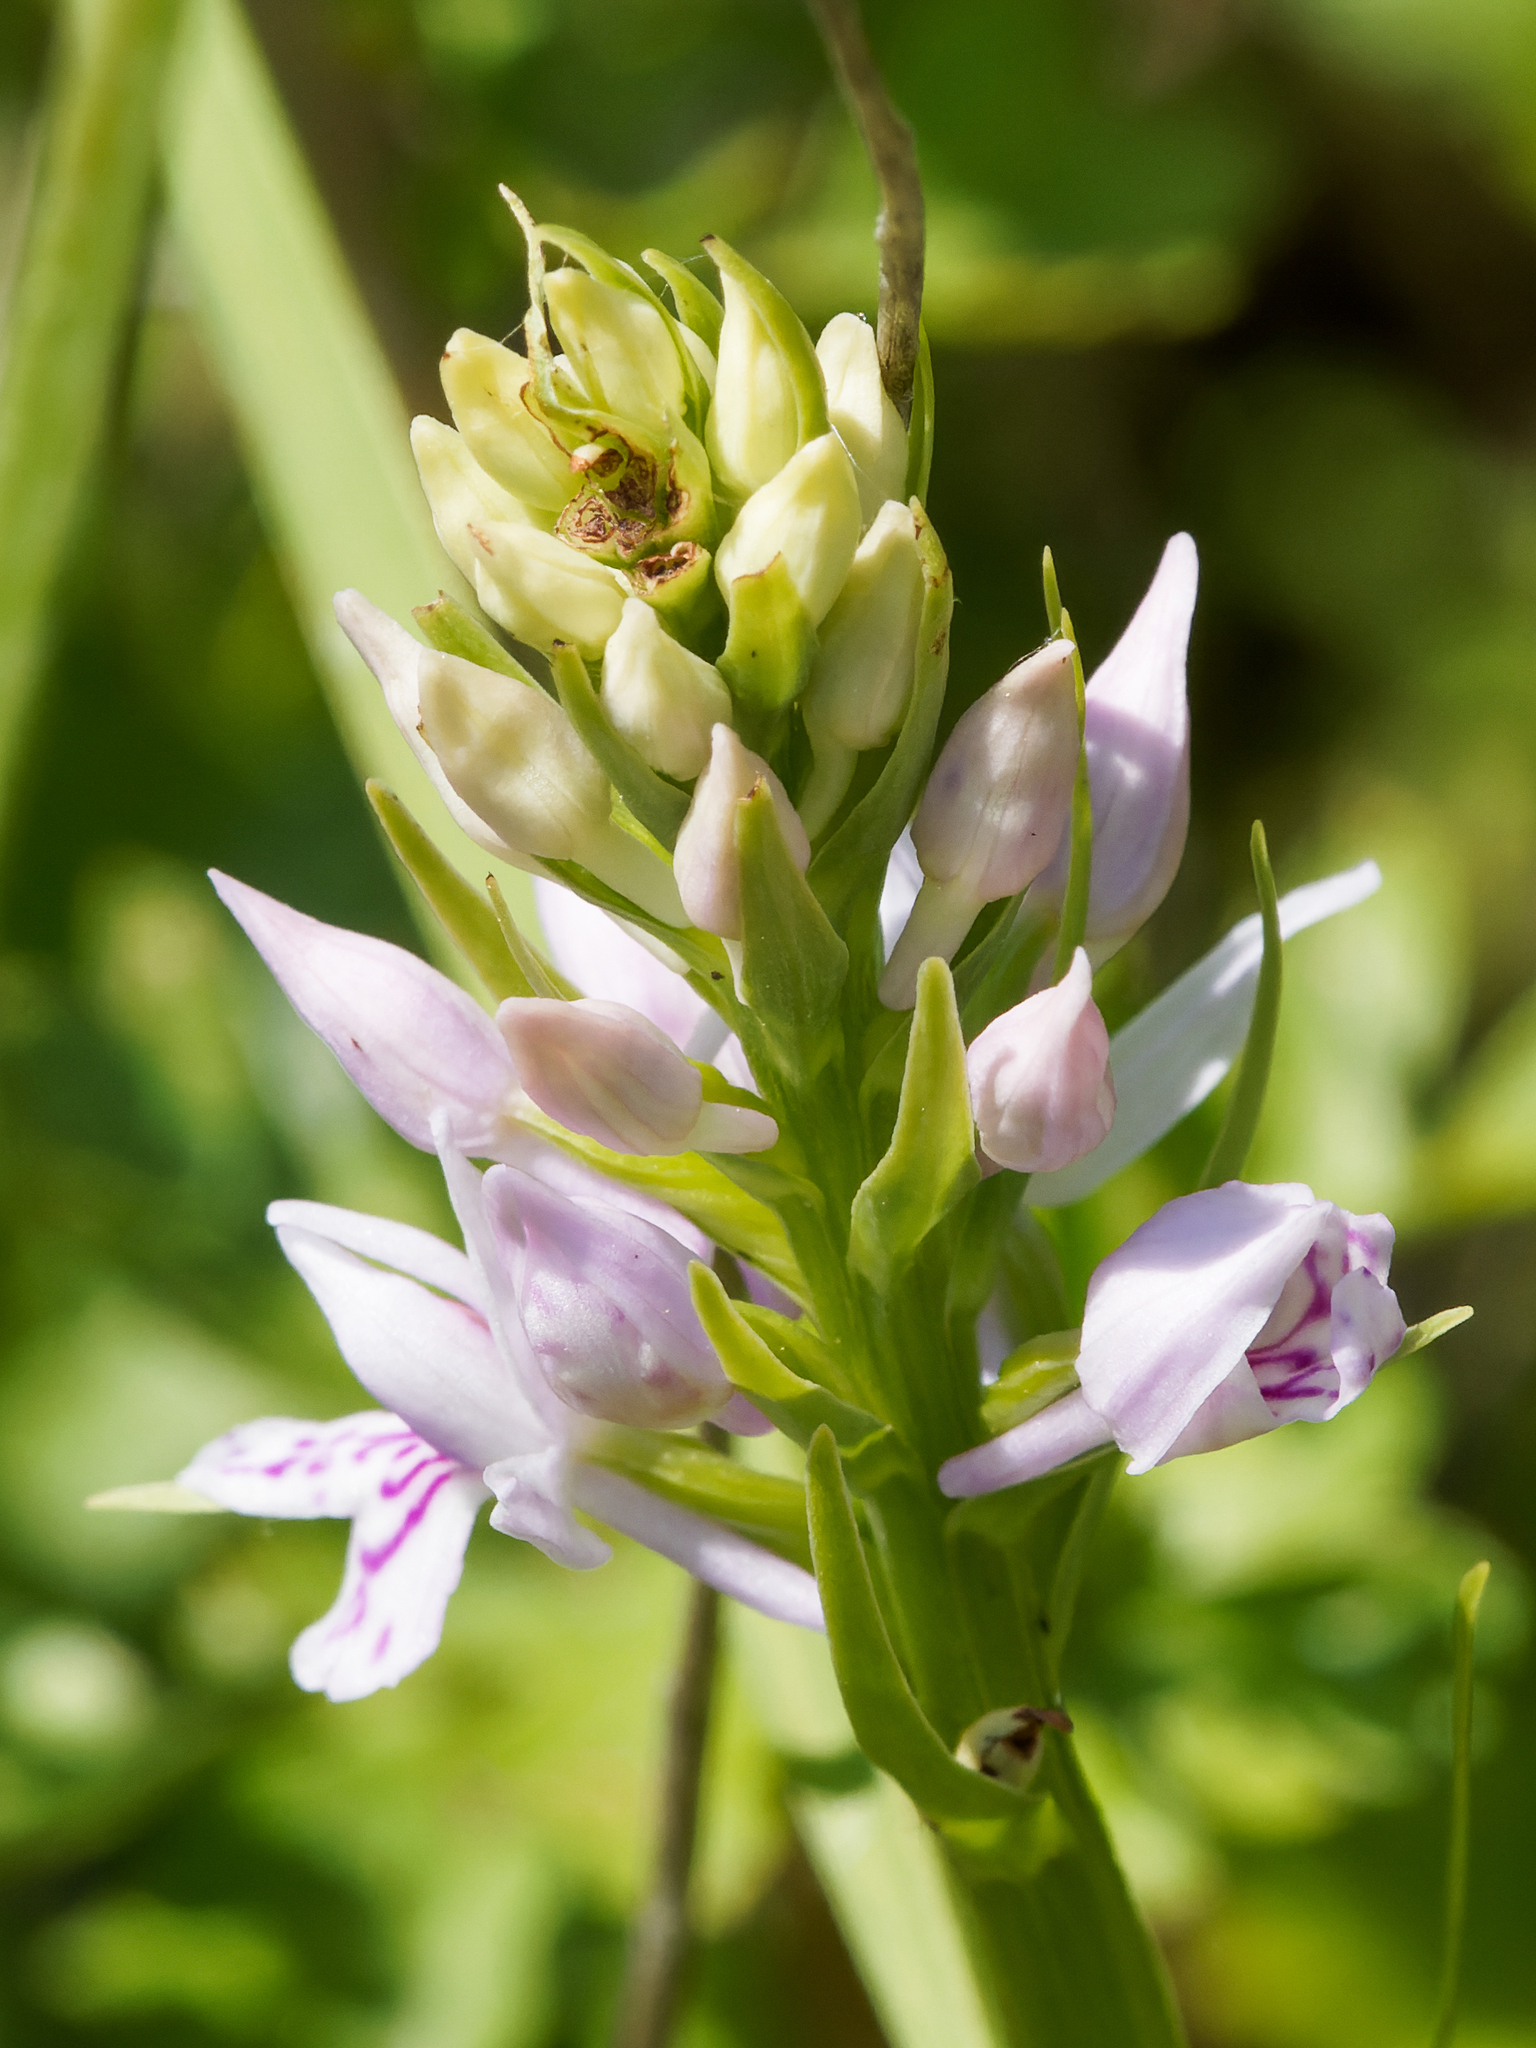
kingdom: Plantae
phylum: Tracheophyta
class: Liliopsida
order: Asparagales
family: Orchidaceae
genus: Dactylorhiza
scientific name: Dactylorhiza maculata
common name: Heath spotted-orchid
